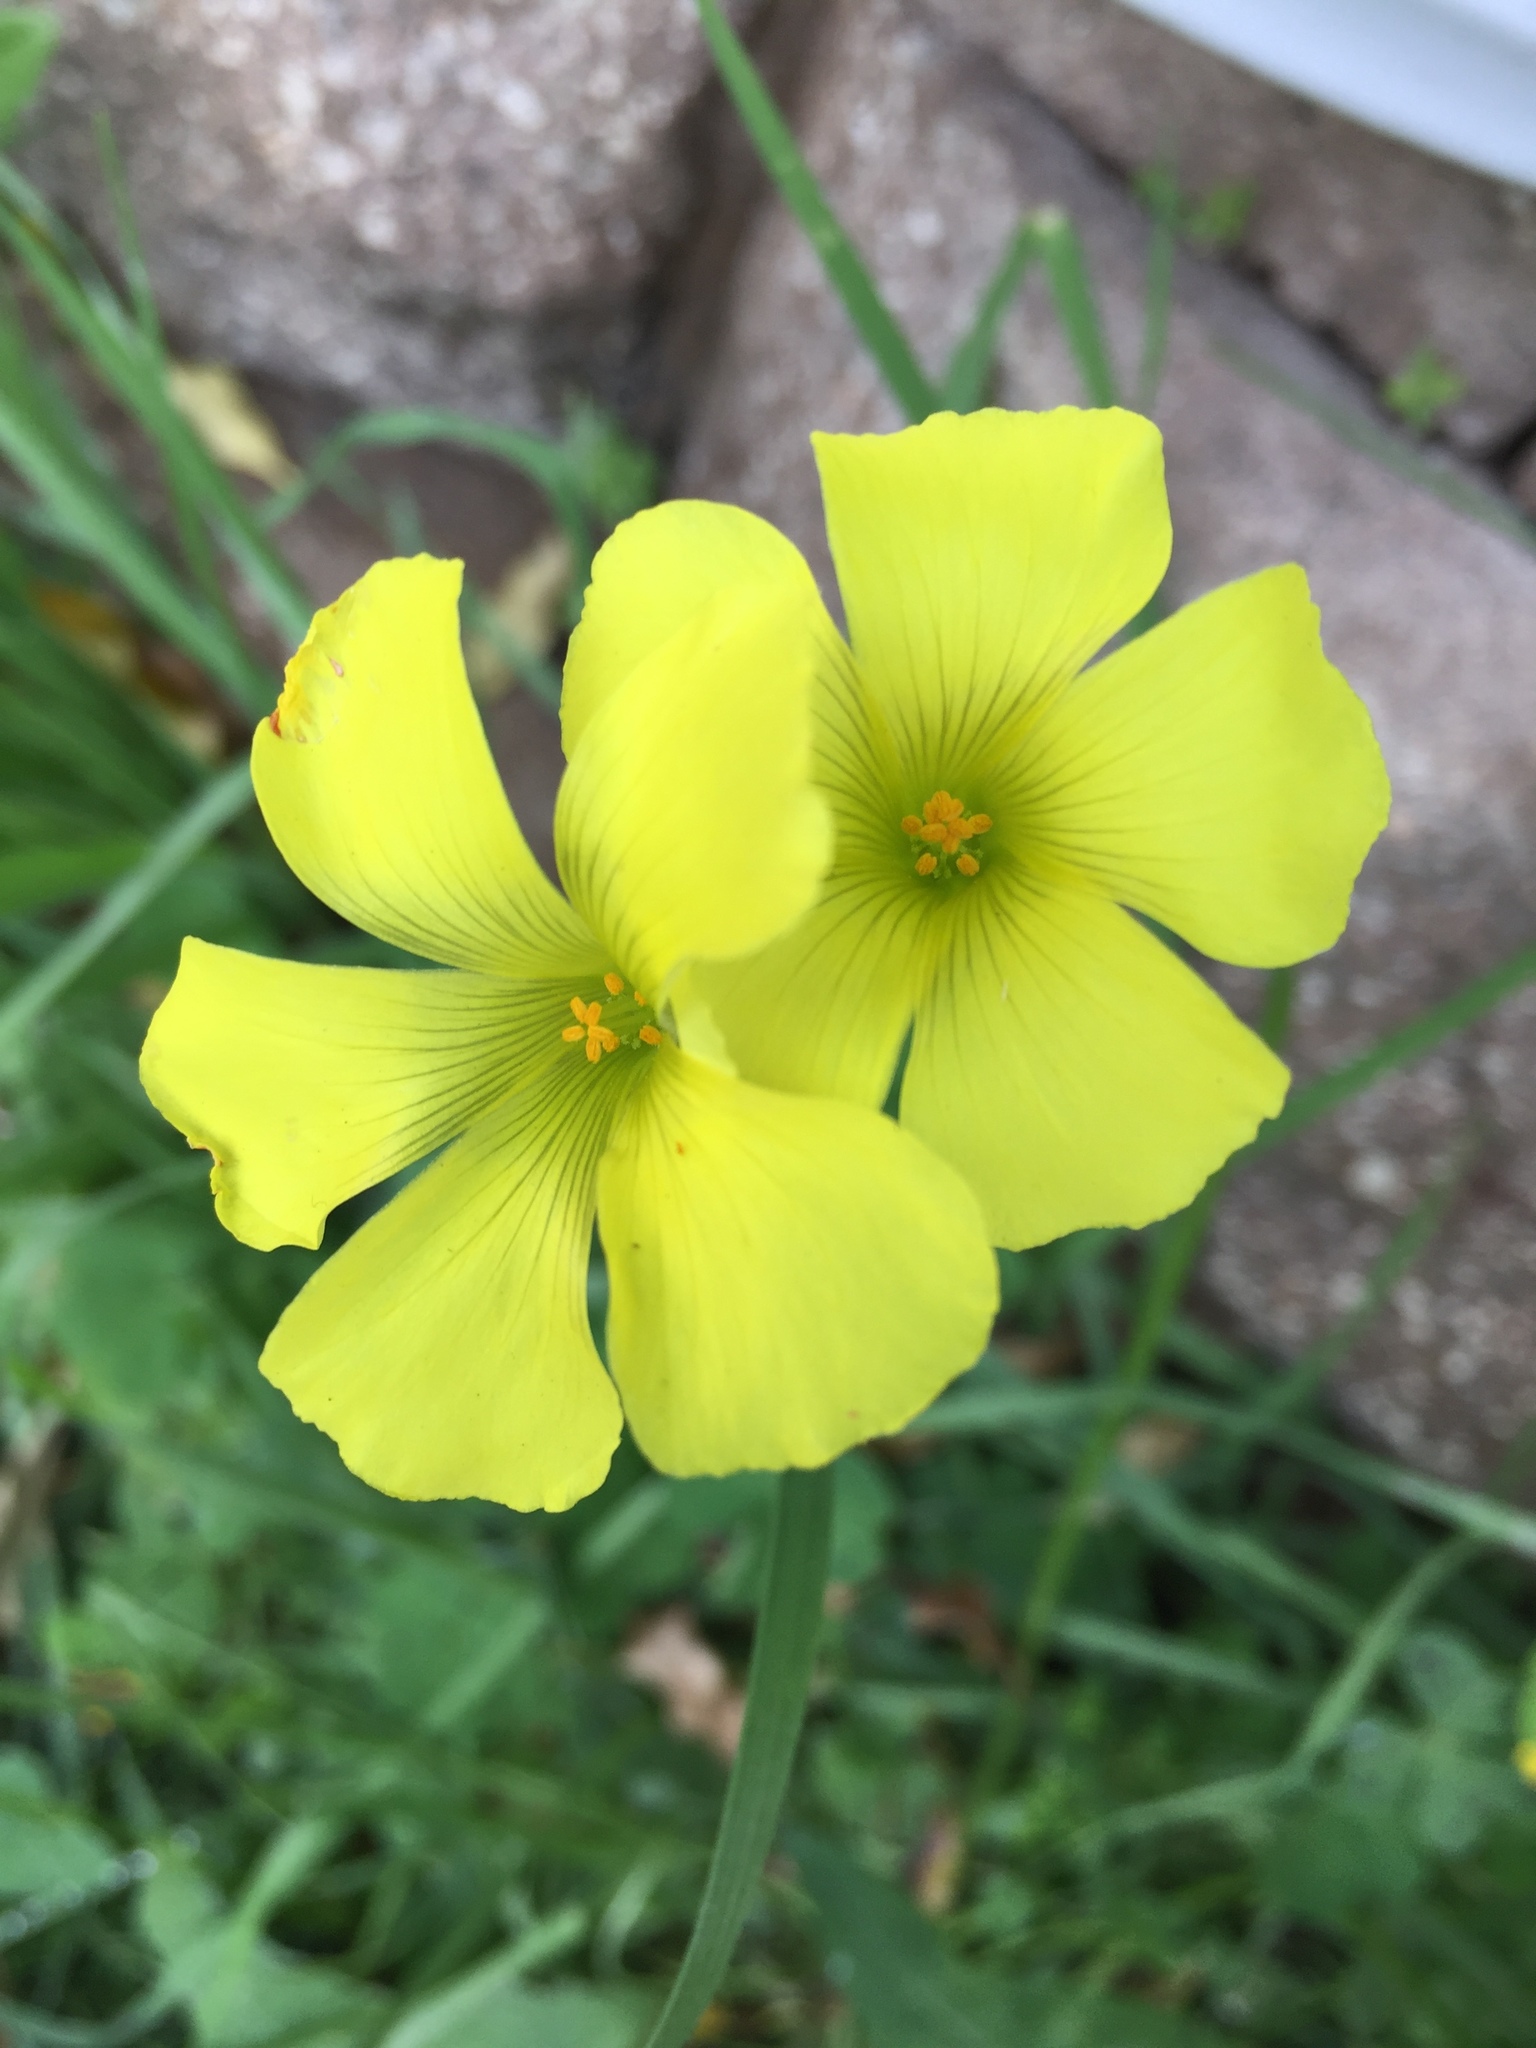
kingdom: Plantae
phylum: Tracheophyta
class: Magnoliopsida
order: Oxalidales
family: Oxalidaceae
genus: Oxalis
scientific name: Oxalis pes-caprae
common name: Bermuda-buttercup
